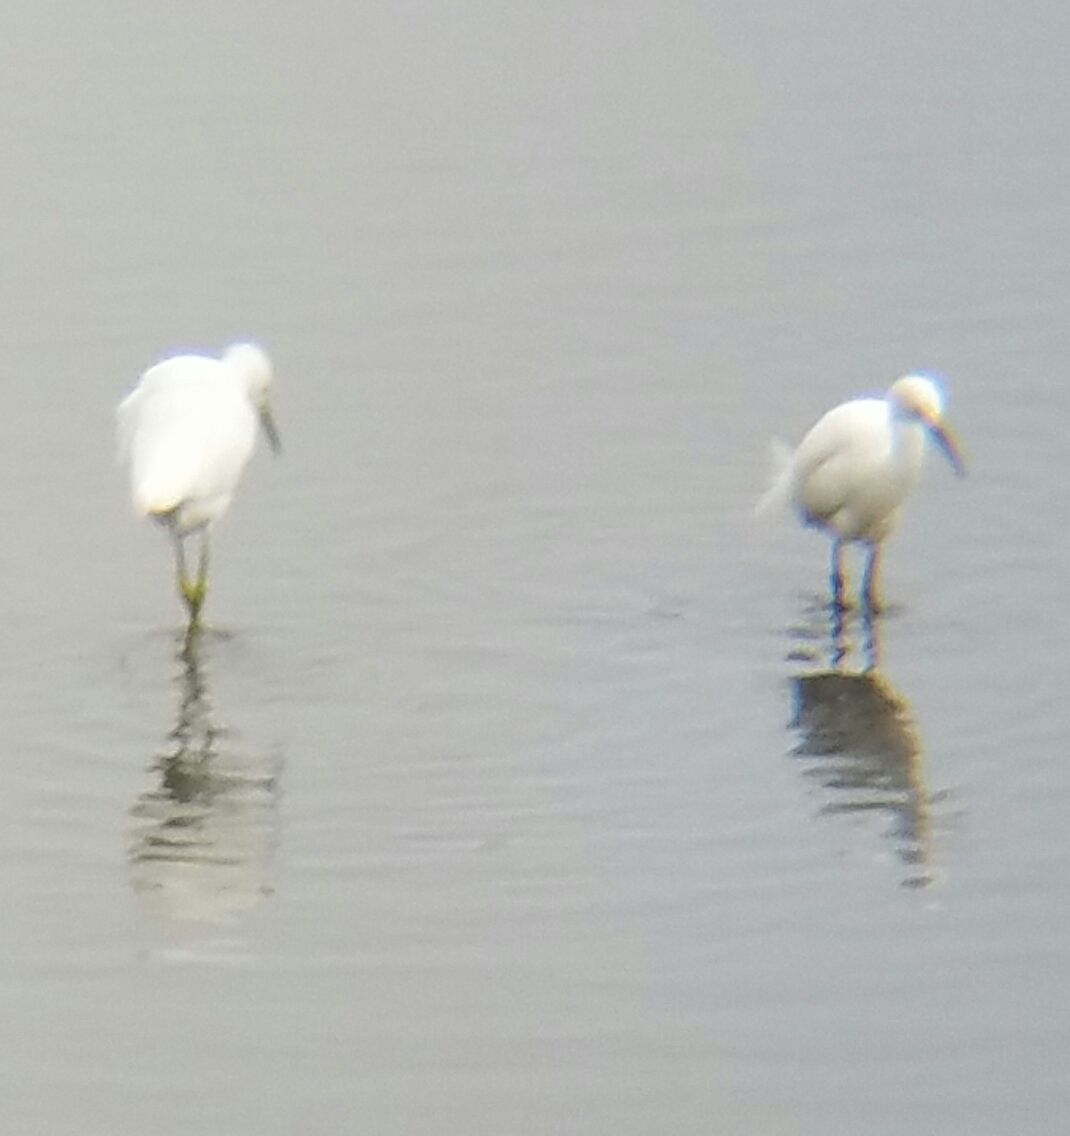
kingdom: Animalia
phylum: Chordata
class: Aves
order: Pelecaniformes
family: Ardeidae
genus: Egretta
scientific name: Egretta thula
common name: Snowy egret
